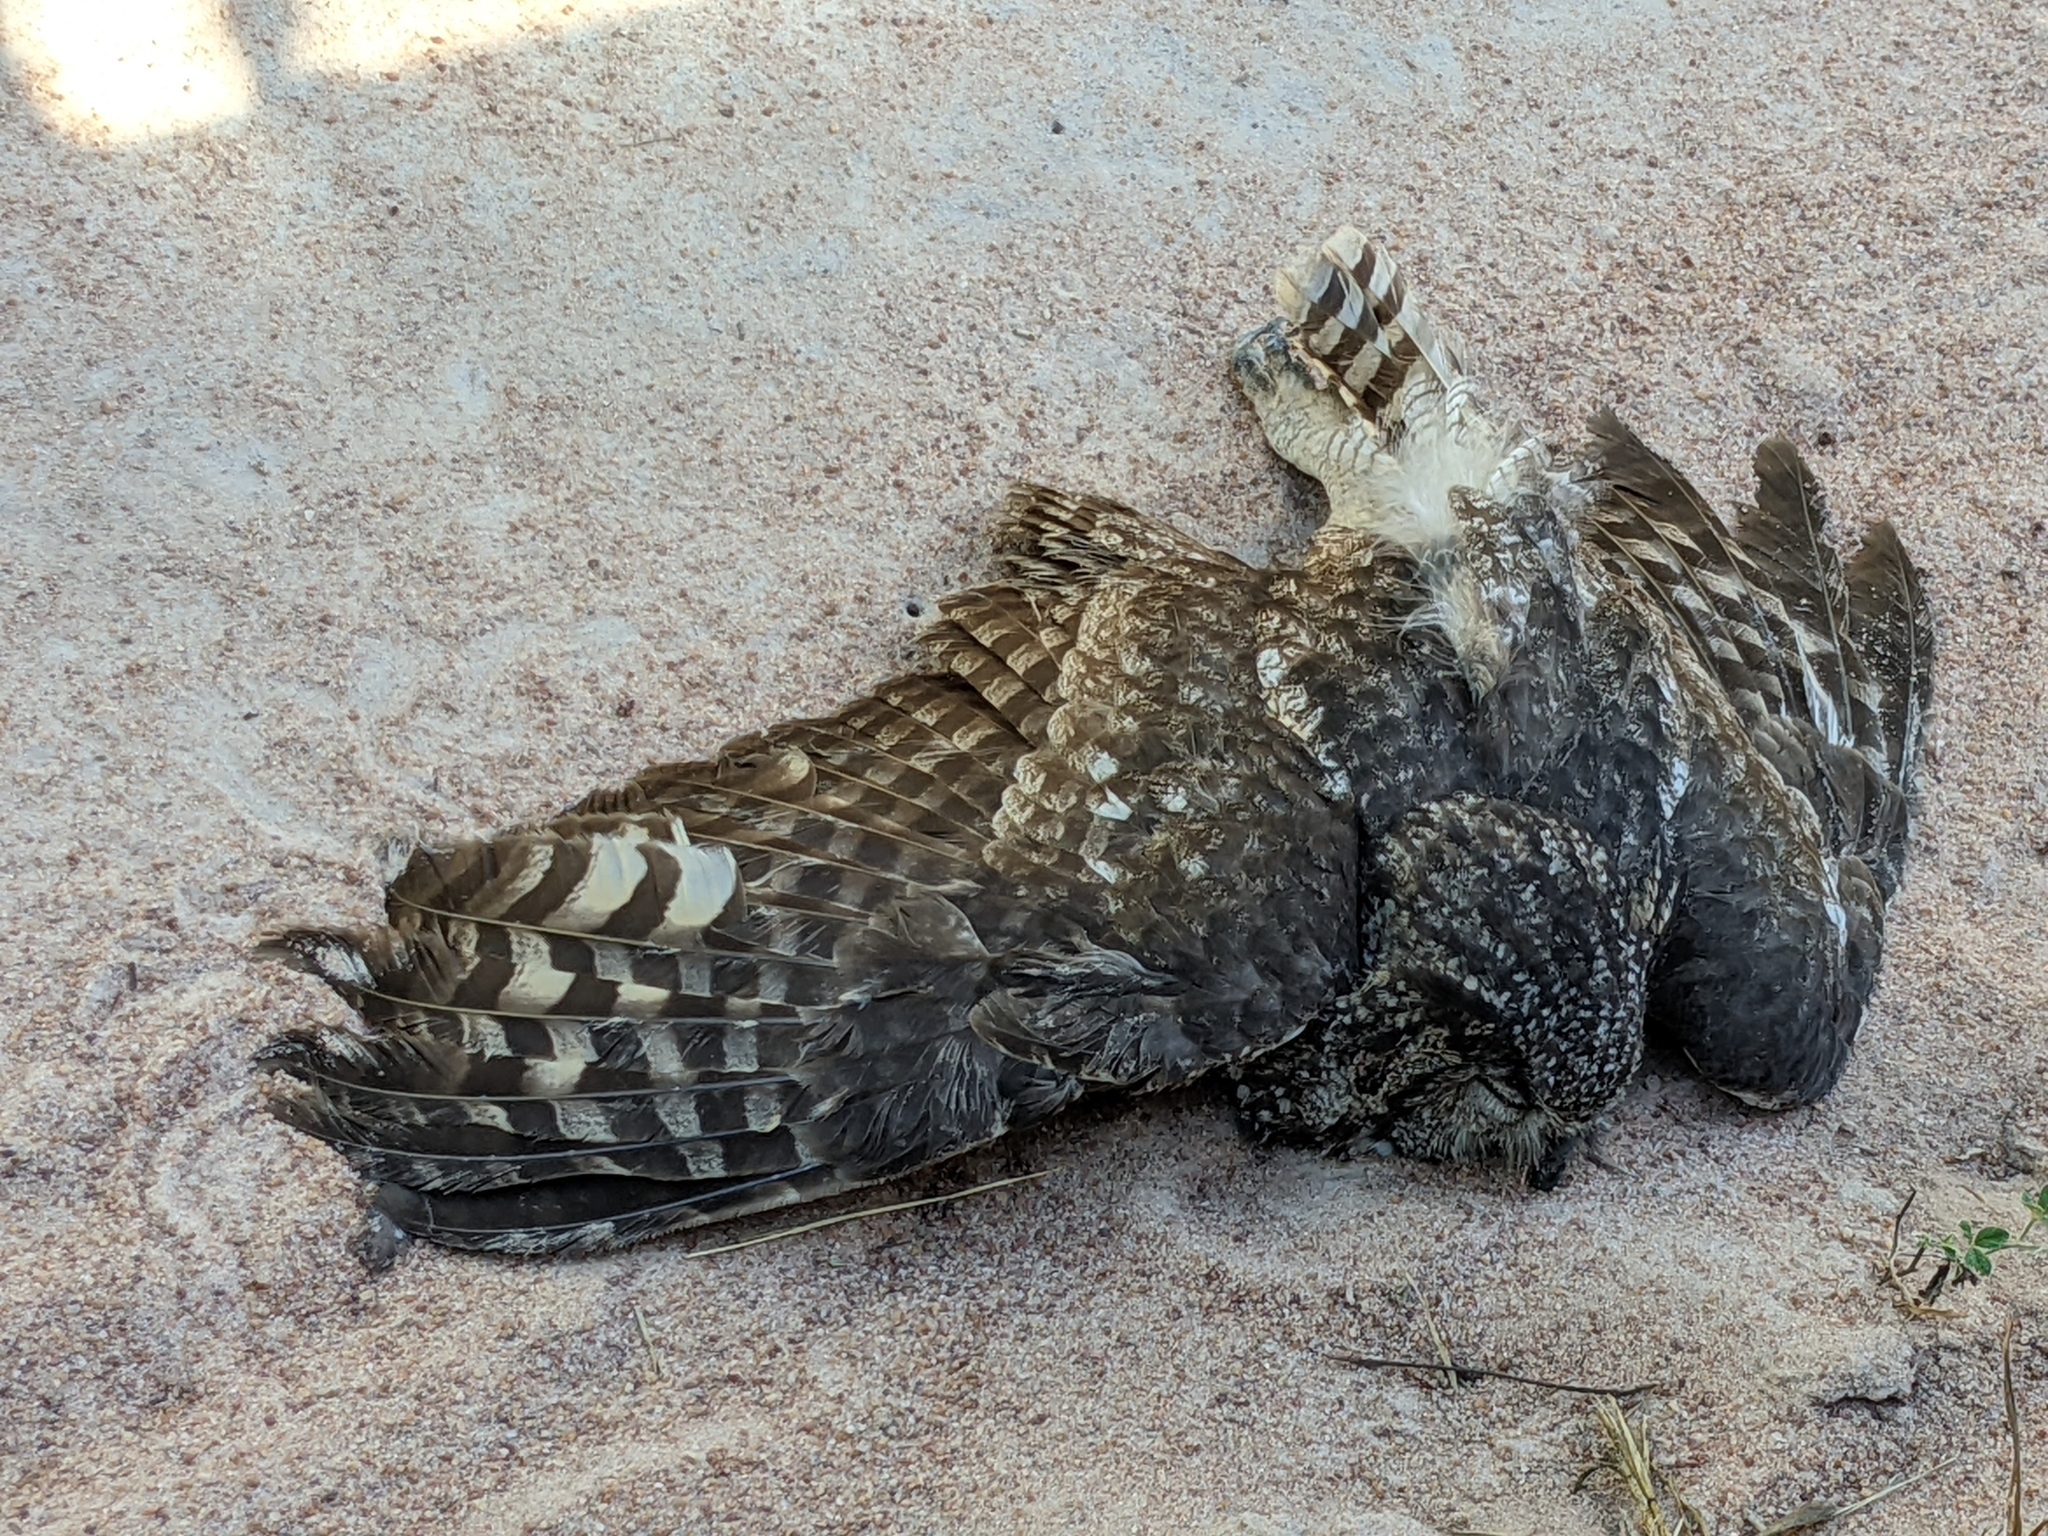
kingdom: Animalia
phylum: Chordata
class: Aves
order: Strigiformes
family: Strigidae
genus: Bubo
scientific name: Bubo africanus
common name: Spotted eagle-owl
